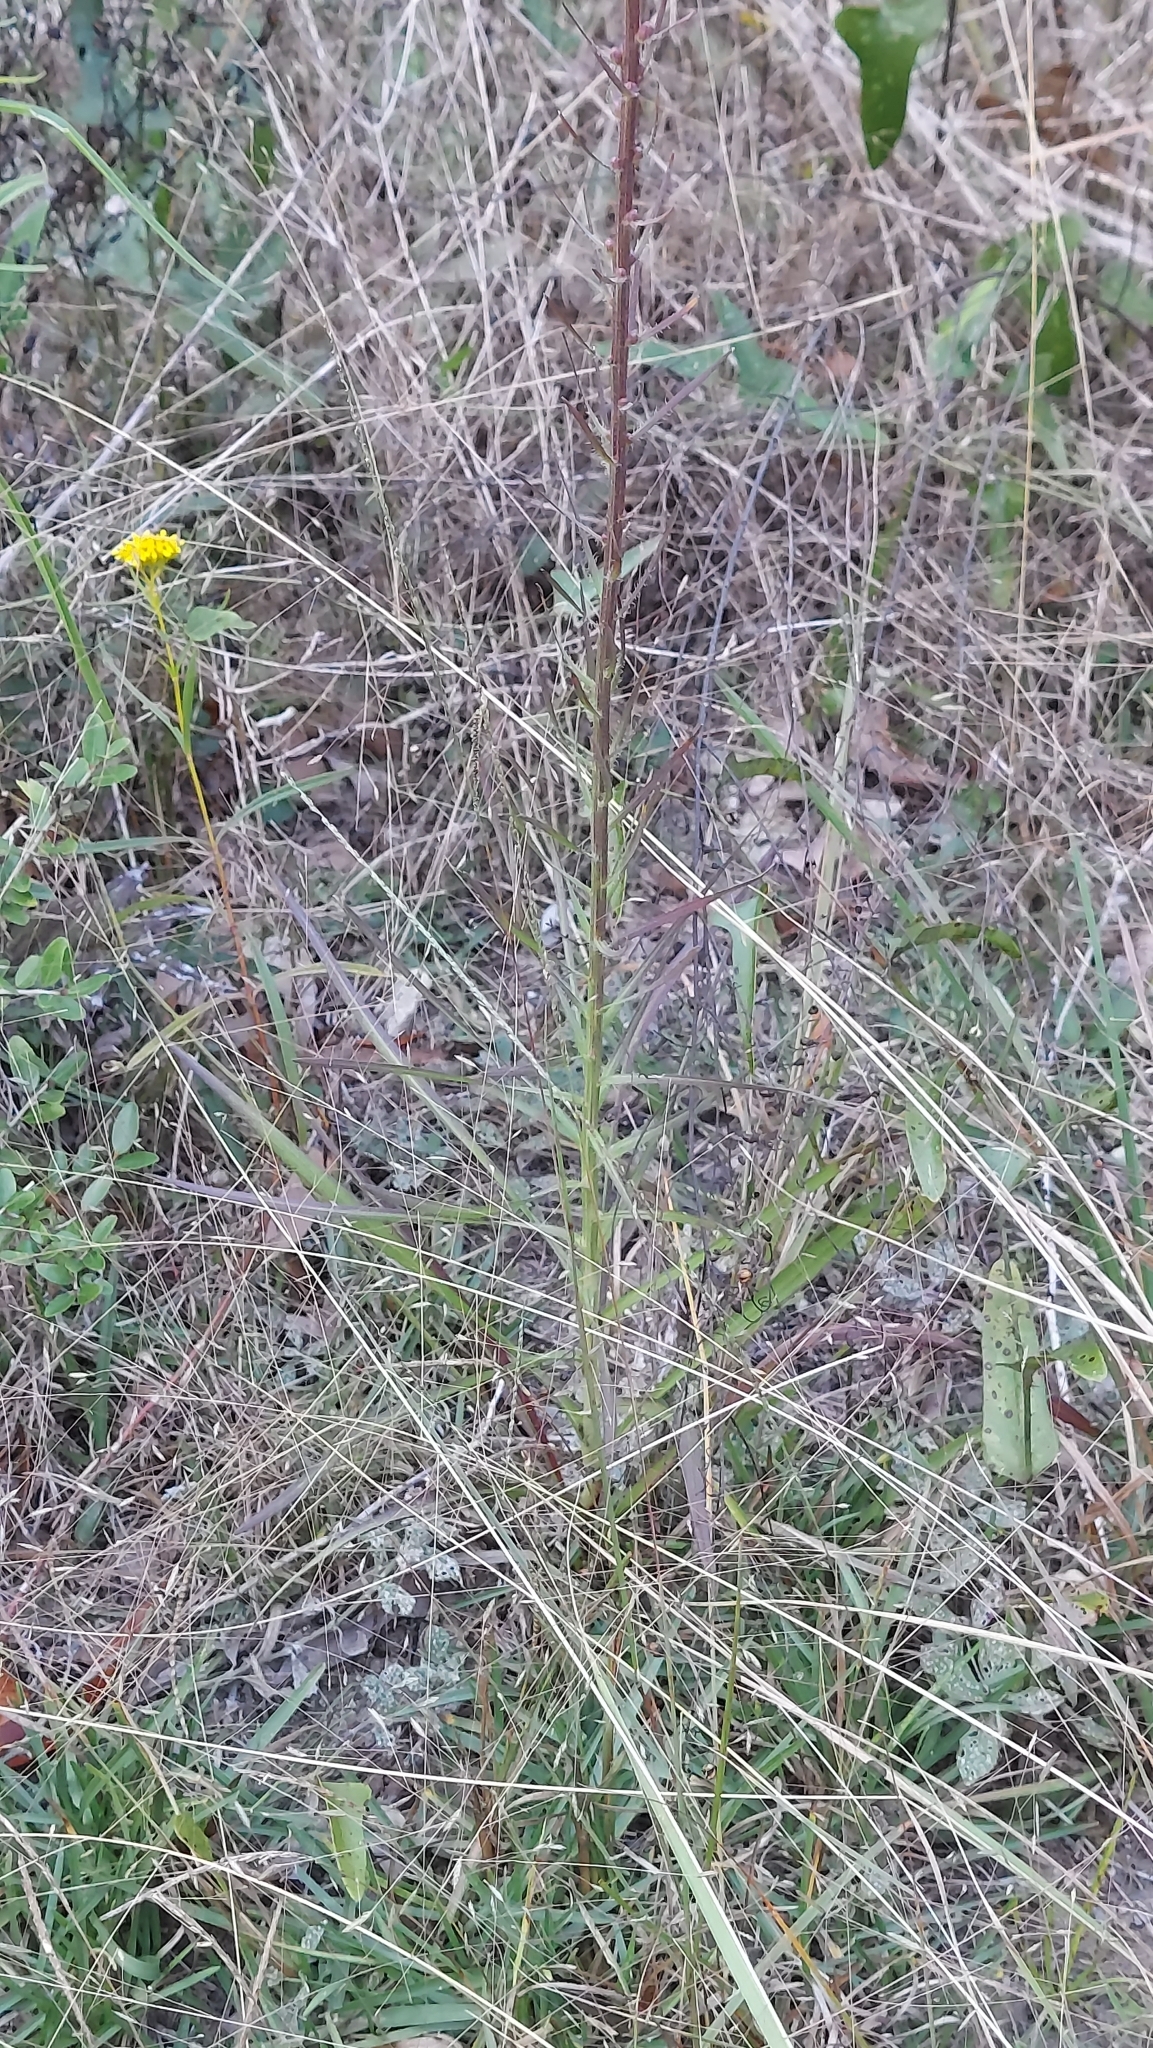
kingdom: Plantae
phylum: Tracheophyta
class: Magnoliopsida
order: Asterales
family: Asteraceae
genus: Liatris
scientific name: Liatris spicata
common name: Florist gayfeather
